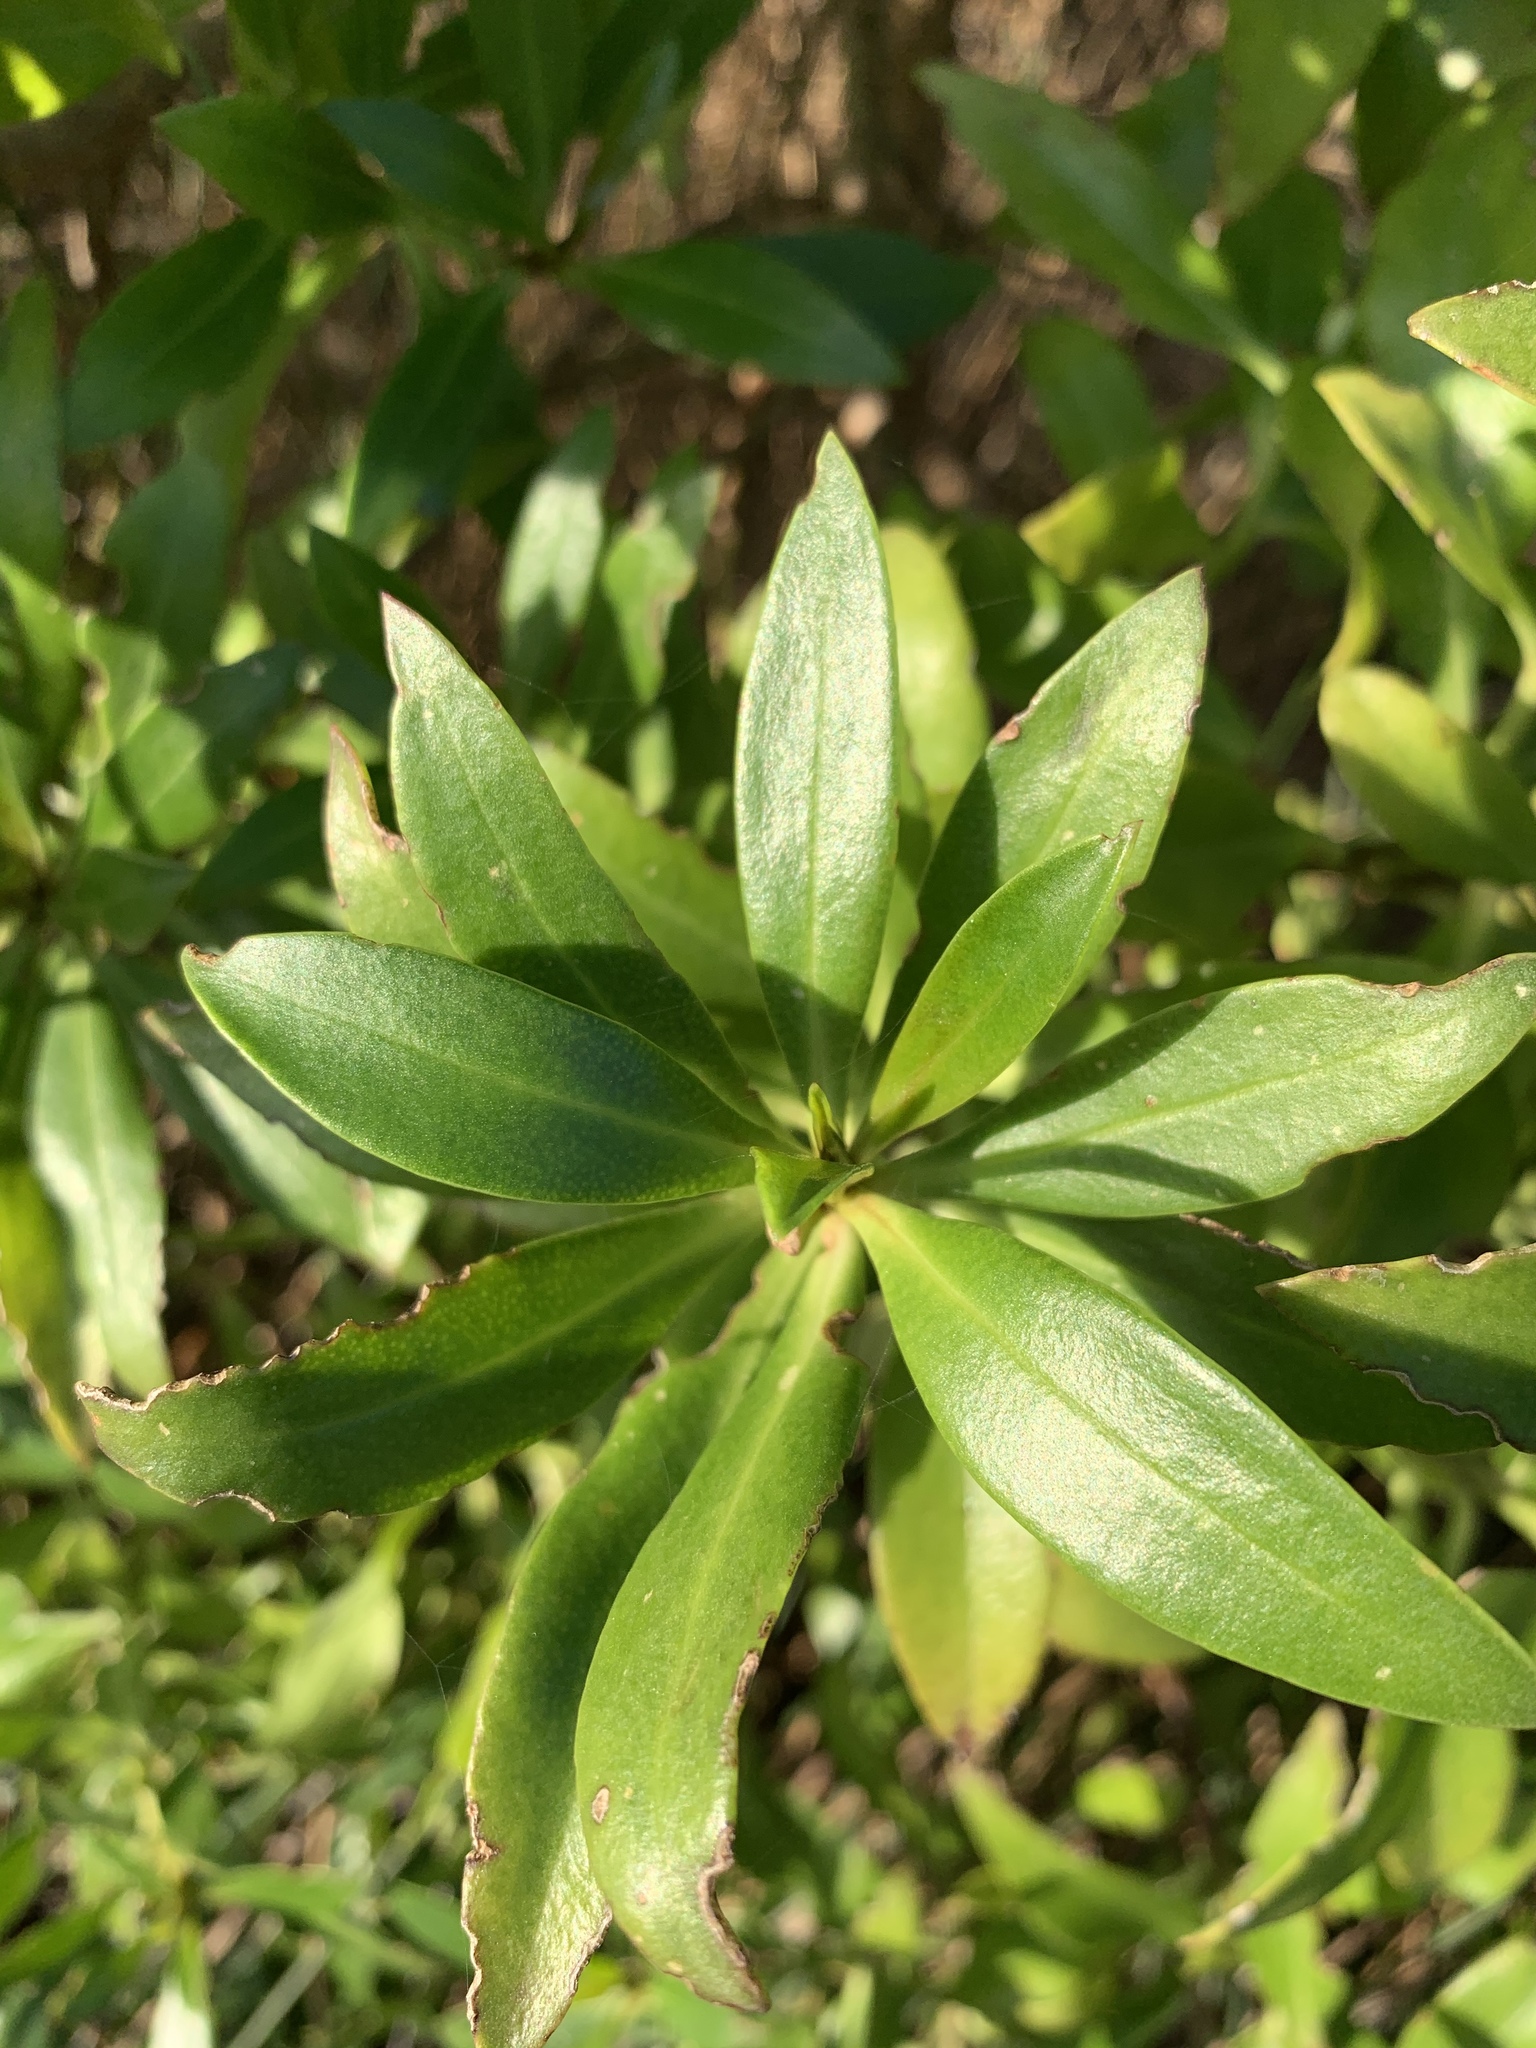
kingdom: Plantae
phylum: Tracheophyta
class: Magnoliopsida
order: Lamiales
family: Scrophulariaceae
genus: Myoporum
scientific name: Myoporum laetum
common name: Ngaio tree
